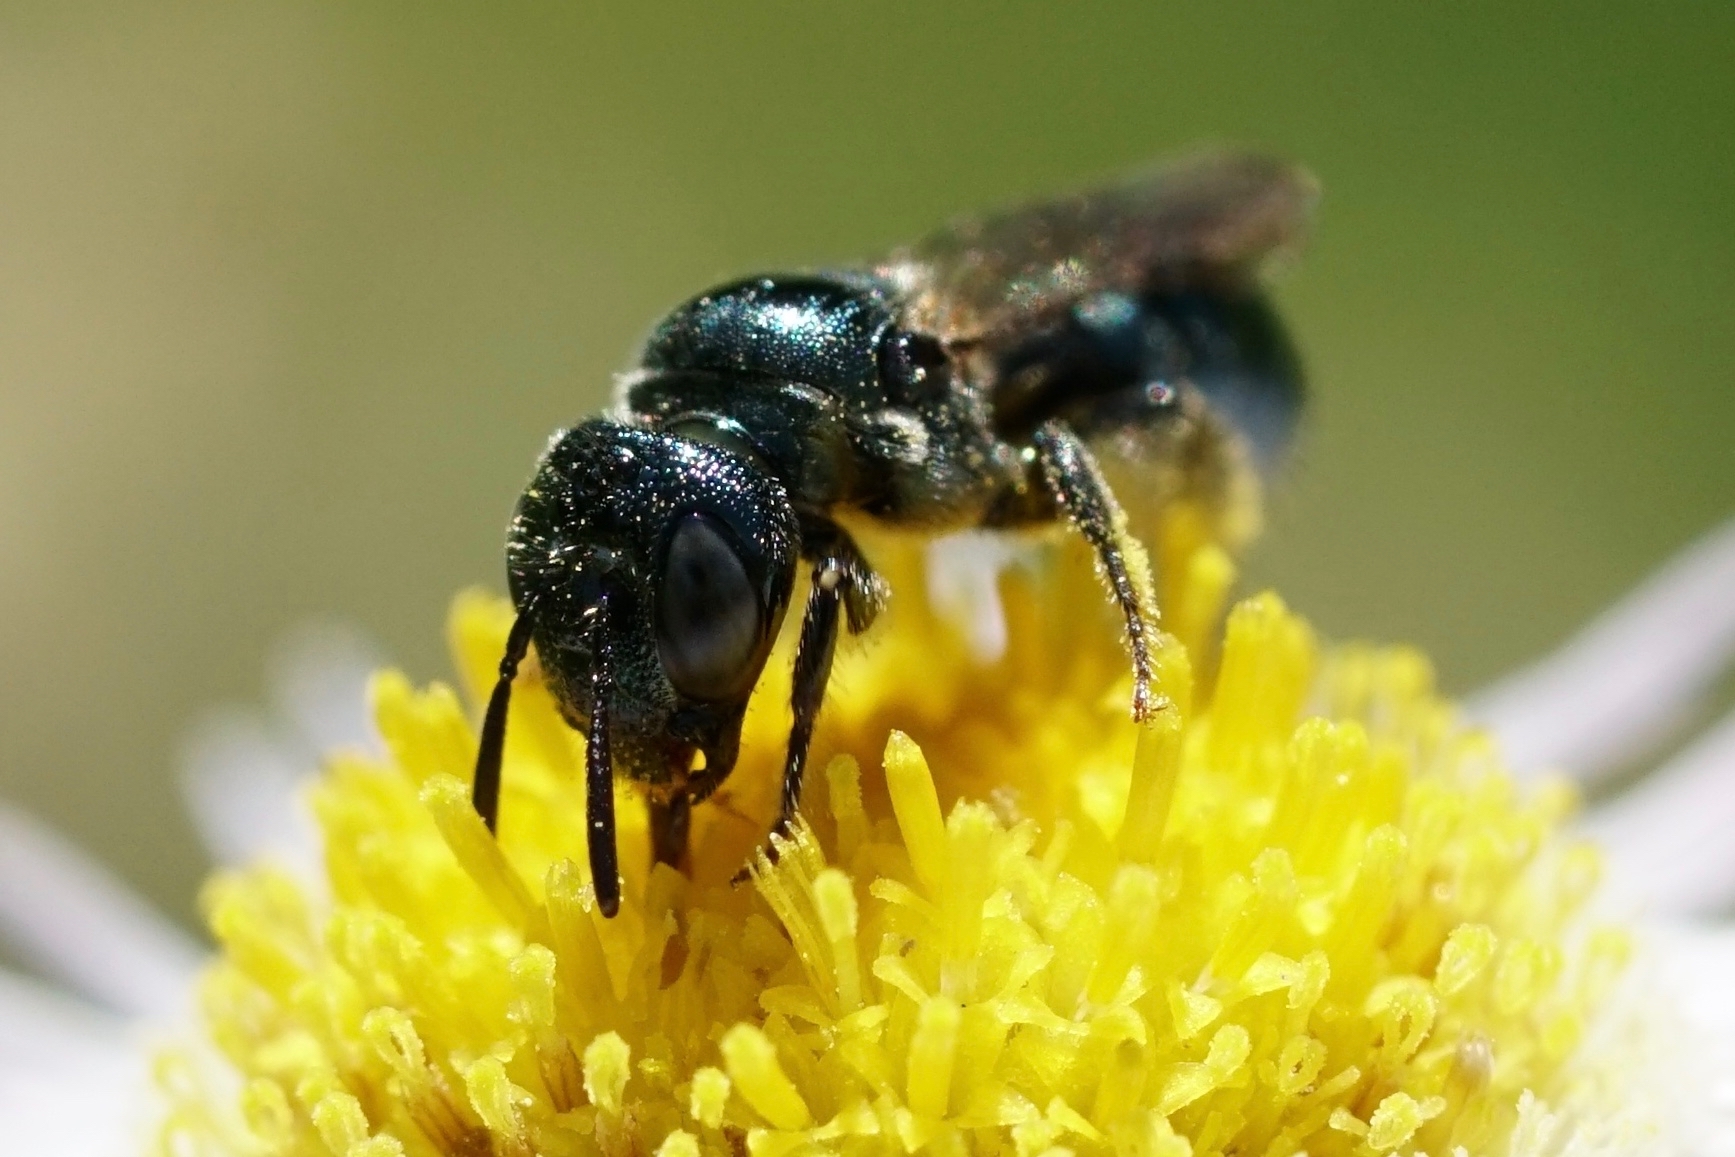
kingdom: Animalia
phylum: Arthropoda
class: Insecta
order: Hymenoptera
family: Apidae
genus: Zadontomerus
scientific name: Zadontomerus
